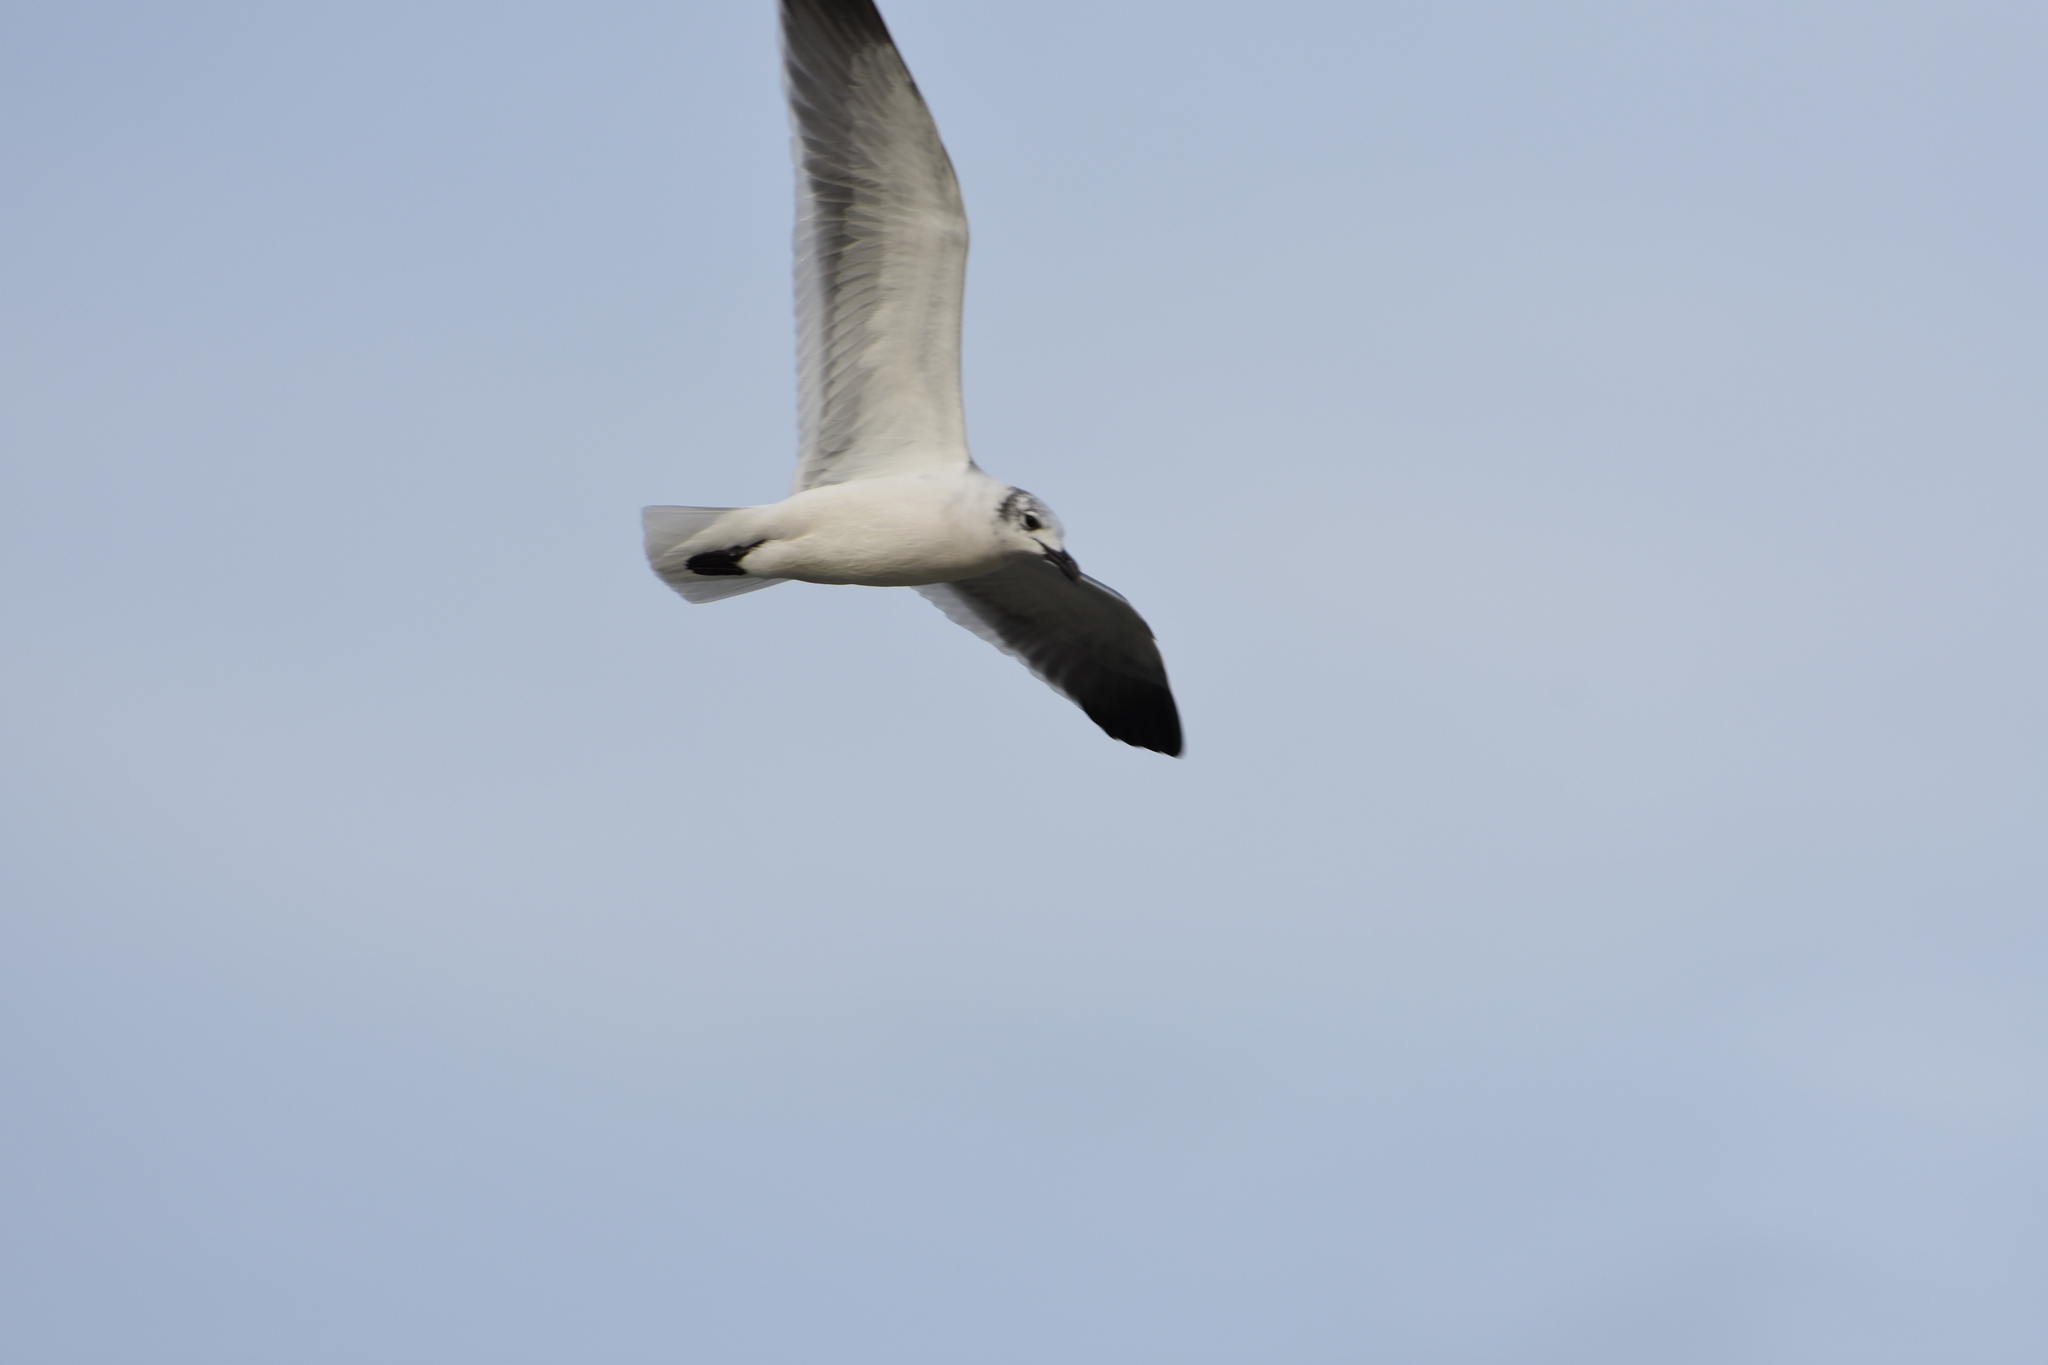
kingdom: Animalia
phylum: Chordata
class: Aves
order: Charadriiformes
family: Laridae
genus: Leucophaeus
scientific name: Leucophaeus atricilla
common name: Laughing gull
